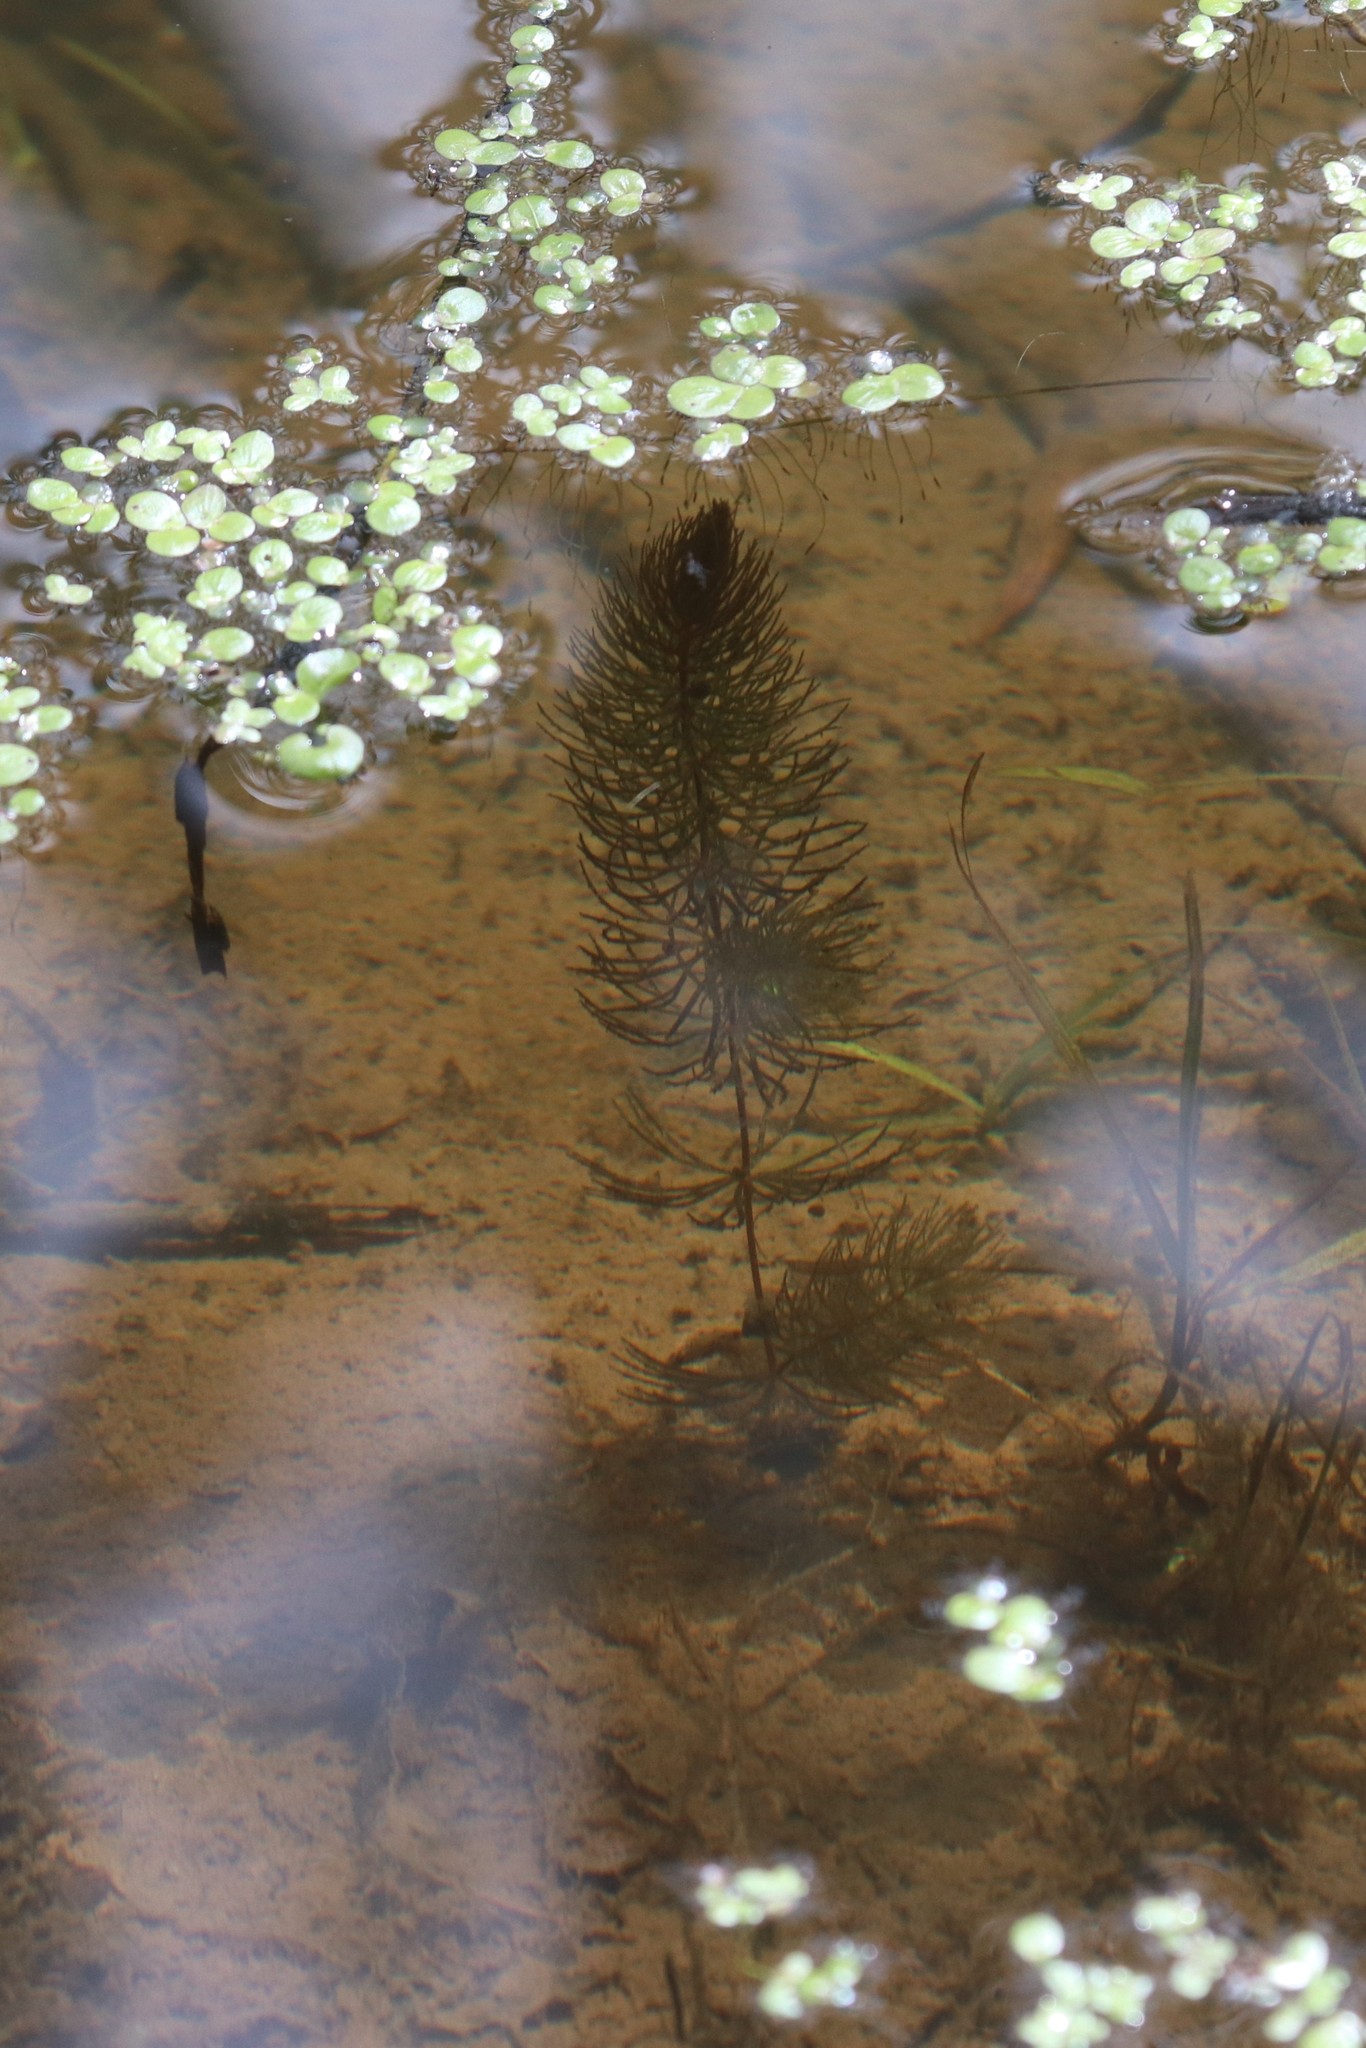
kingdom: Plantae
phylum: Tracheophyta
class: Magnoliopsida
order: Ceratophyllales
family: Ceratophyllaceae
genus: Ceratophyllum
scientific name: Ceratophyllum demersum
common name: Rigid hornwort
